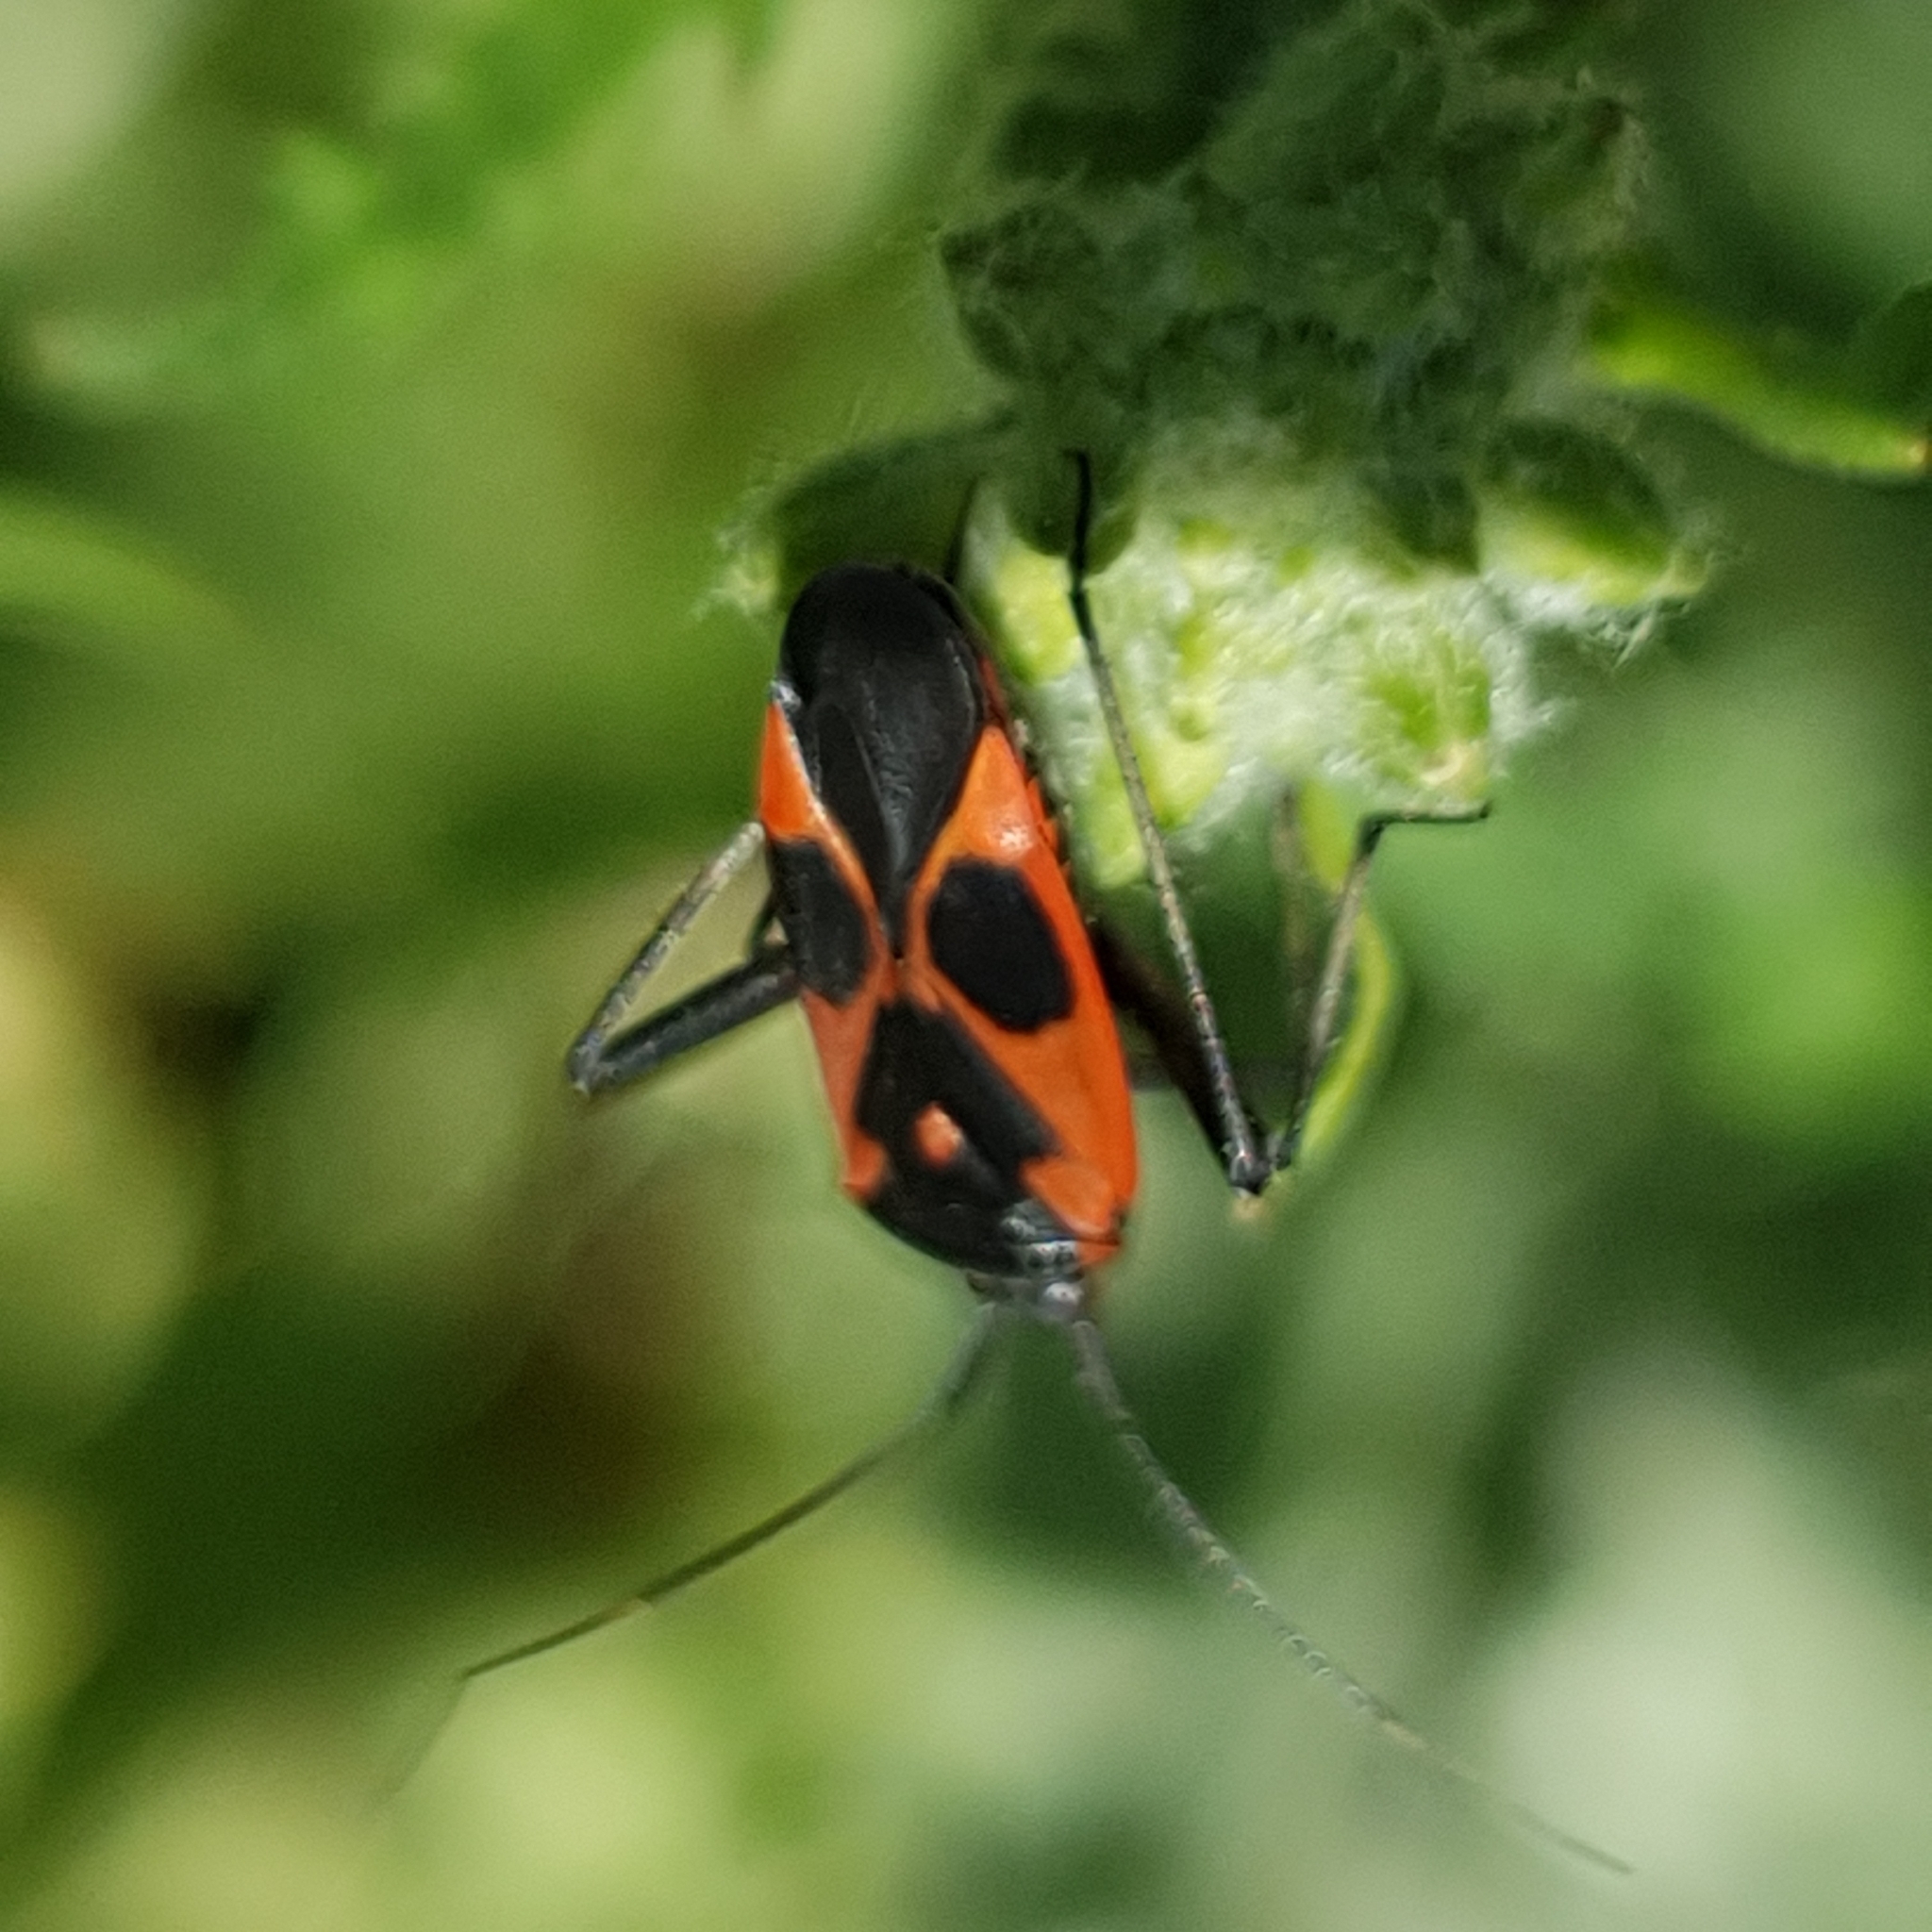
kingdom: Animalia
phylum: Arthropoda
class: Insecta
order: Hemiptera
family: Miridae
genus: Calocoris
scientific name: Calocoris nemoralis
